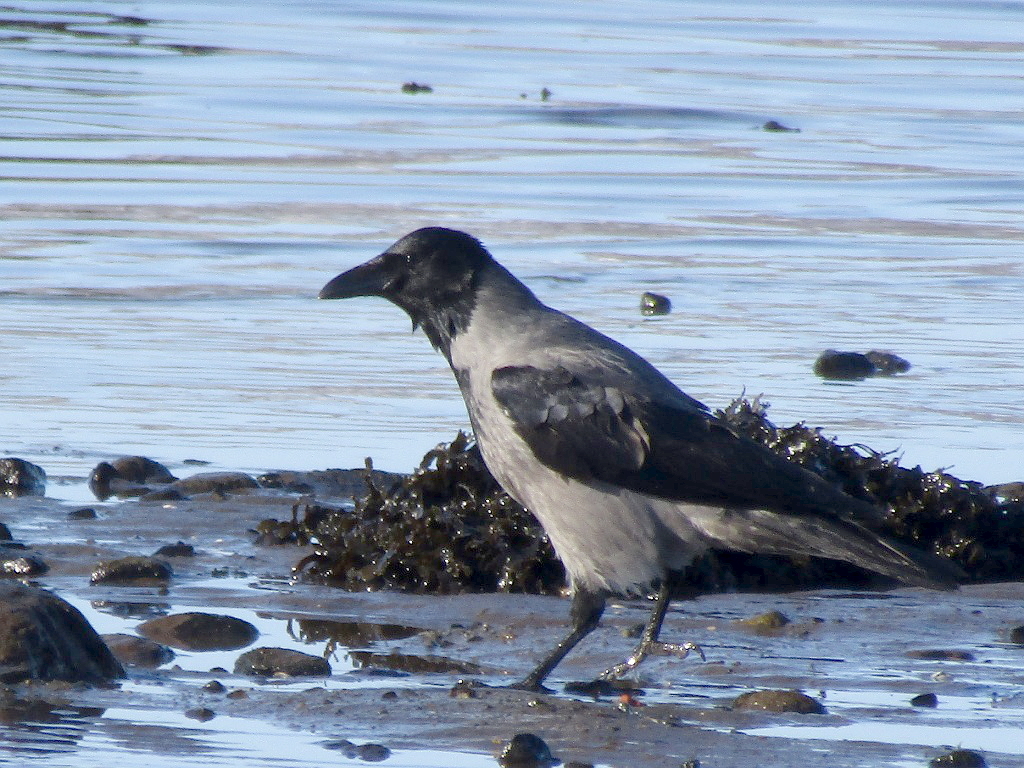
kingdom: Animalia
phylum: Chordata
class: Aves
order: Passeriformes
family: Corvidae
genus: Corvus
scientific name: Corvus cornix
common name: Hooded crow
